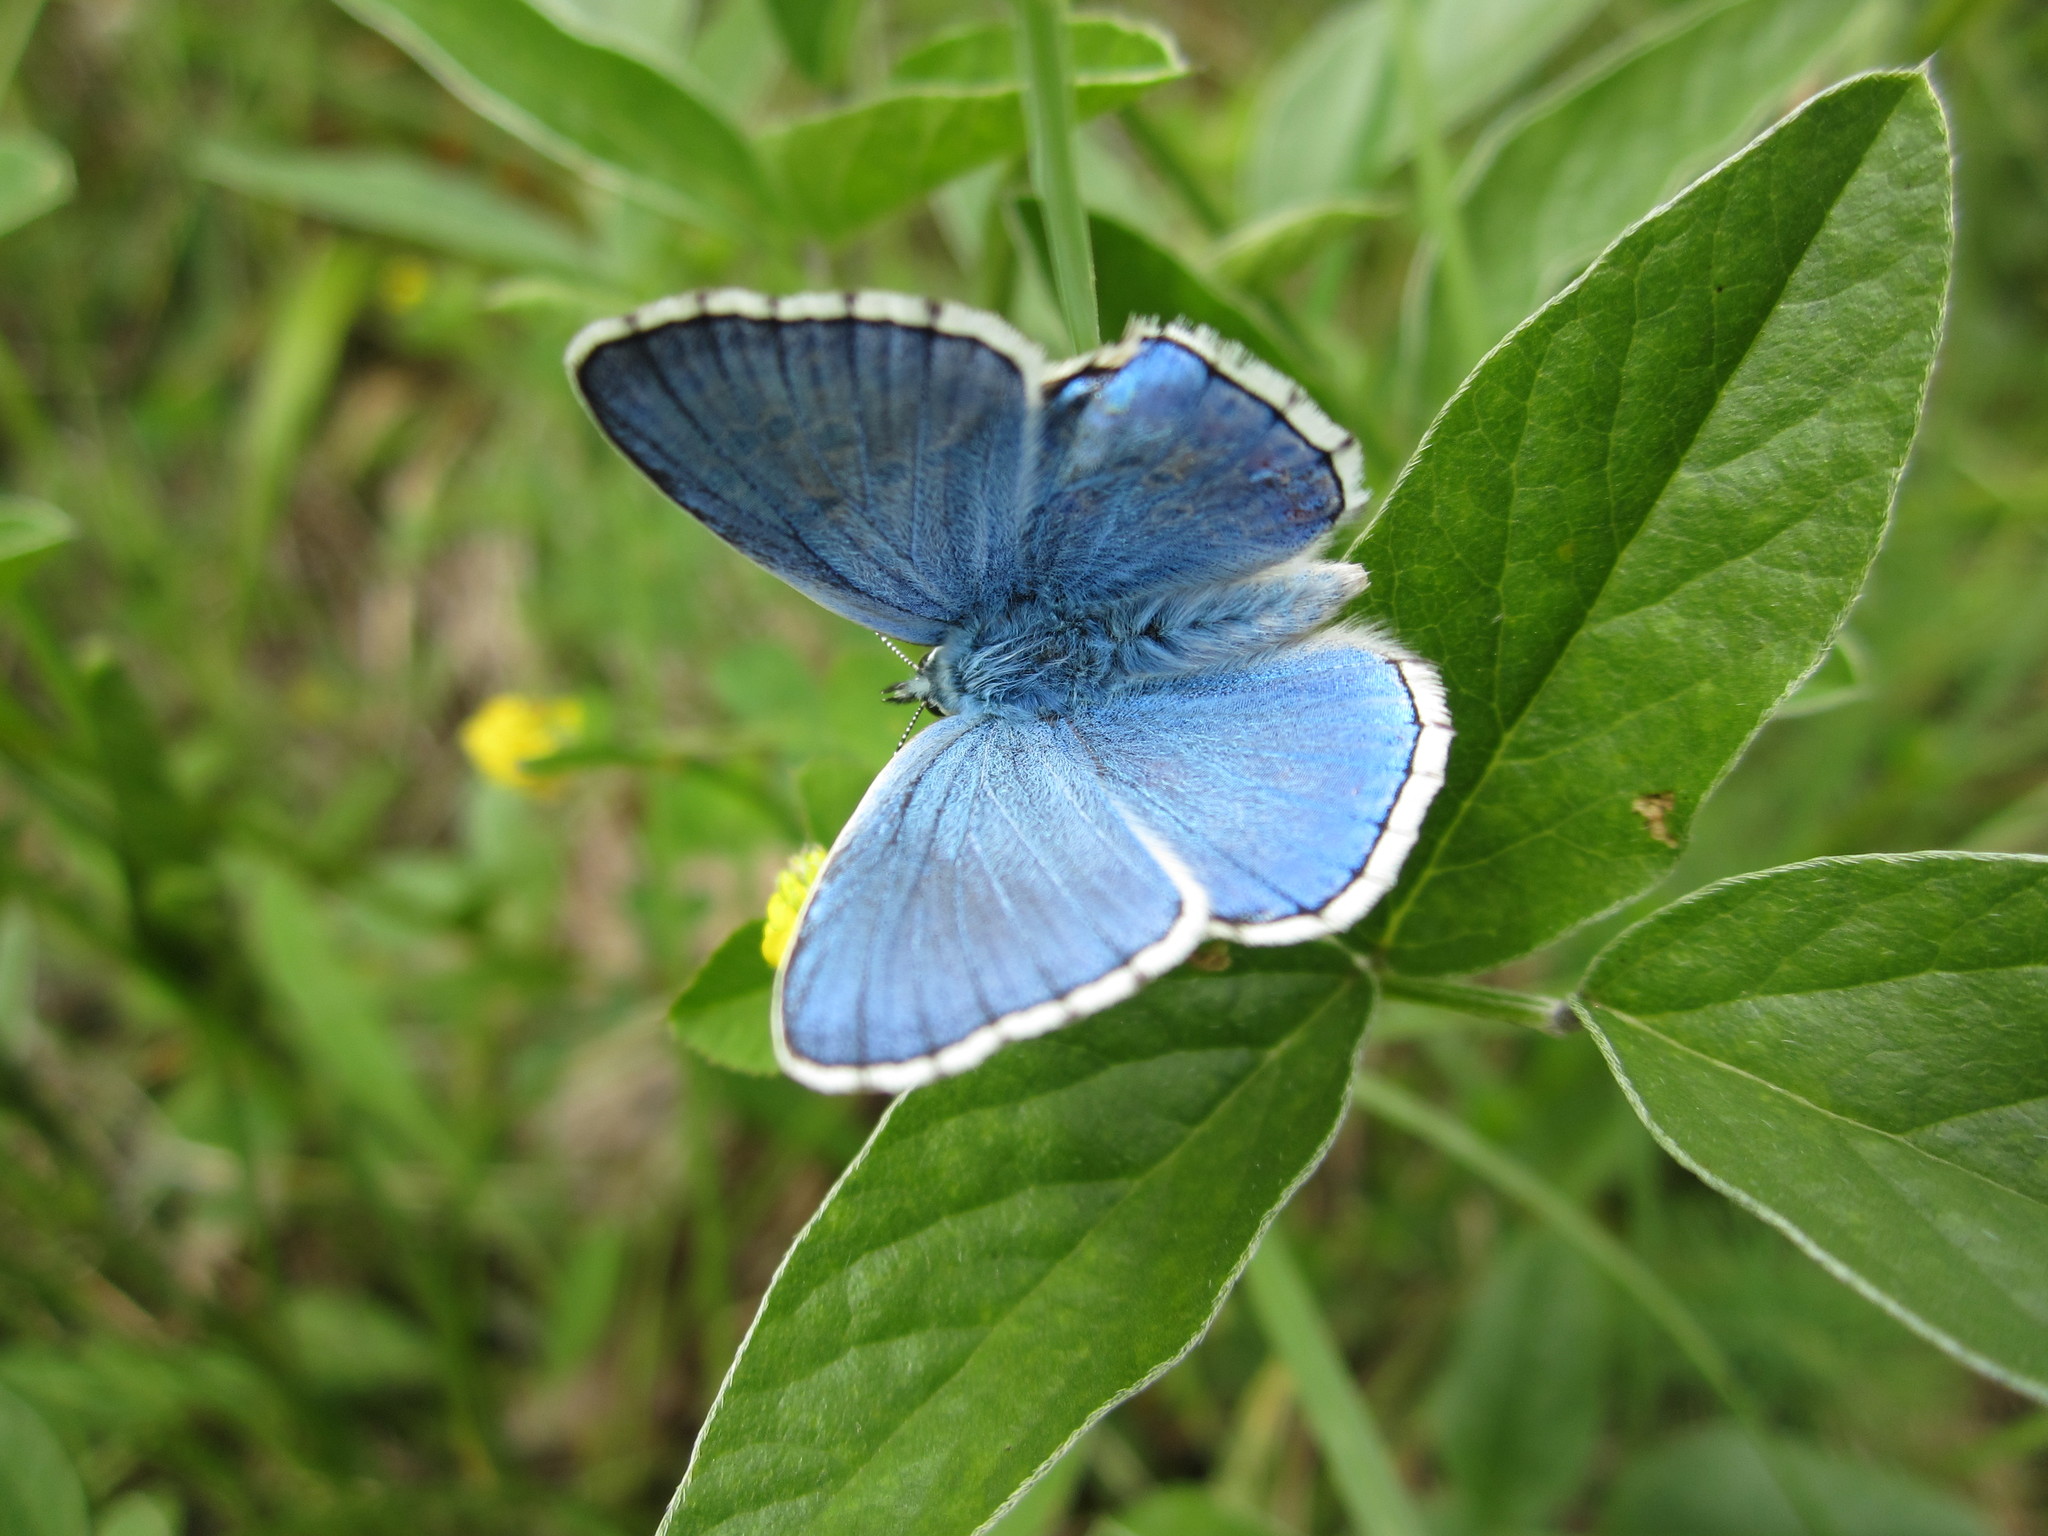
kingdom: Animalia
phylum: Arthropoda
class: Insecta
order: Lepidoptera
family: Lycaenidae
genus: Lysandra
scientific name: Lysandra bellargus
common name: Adonis blue
